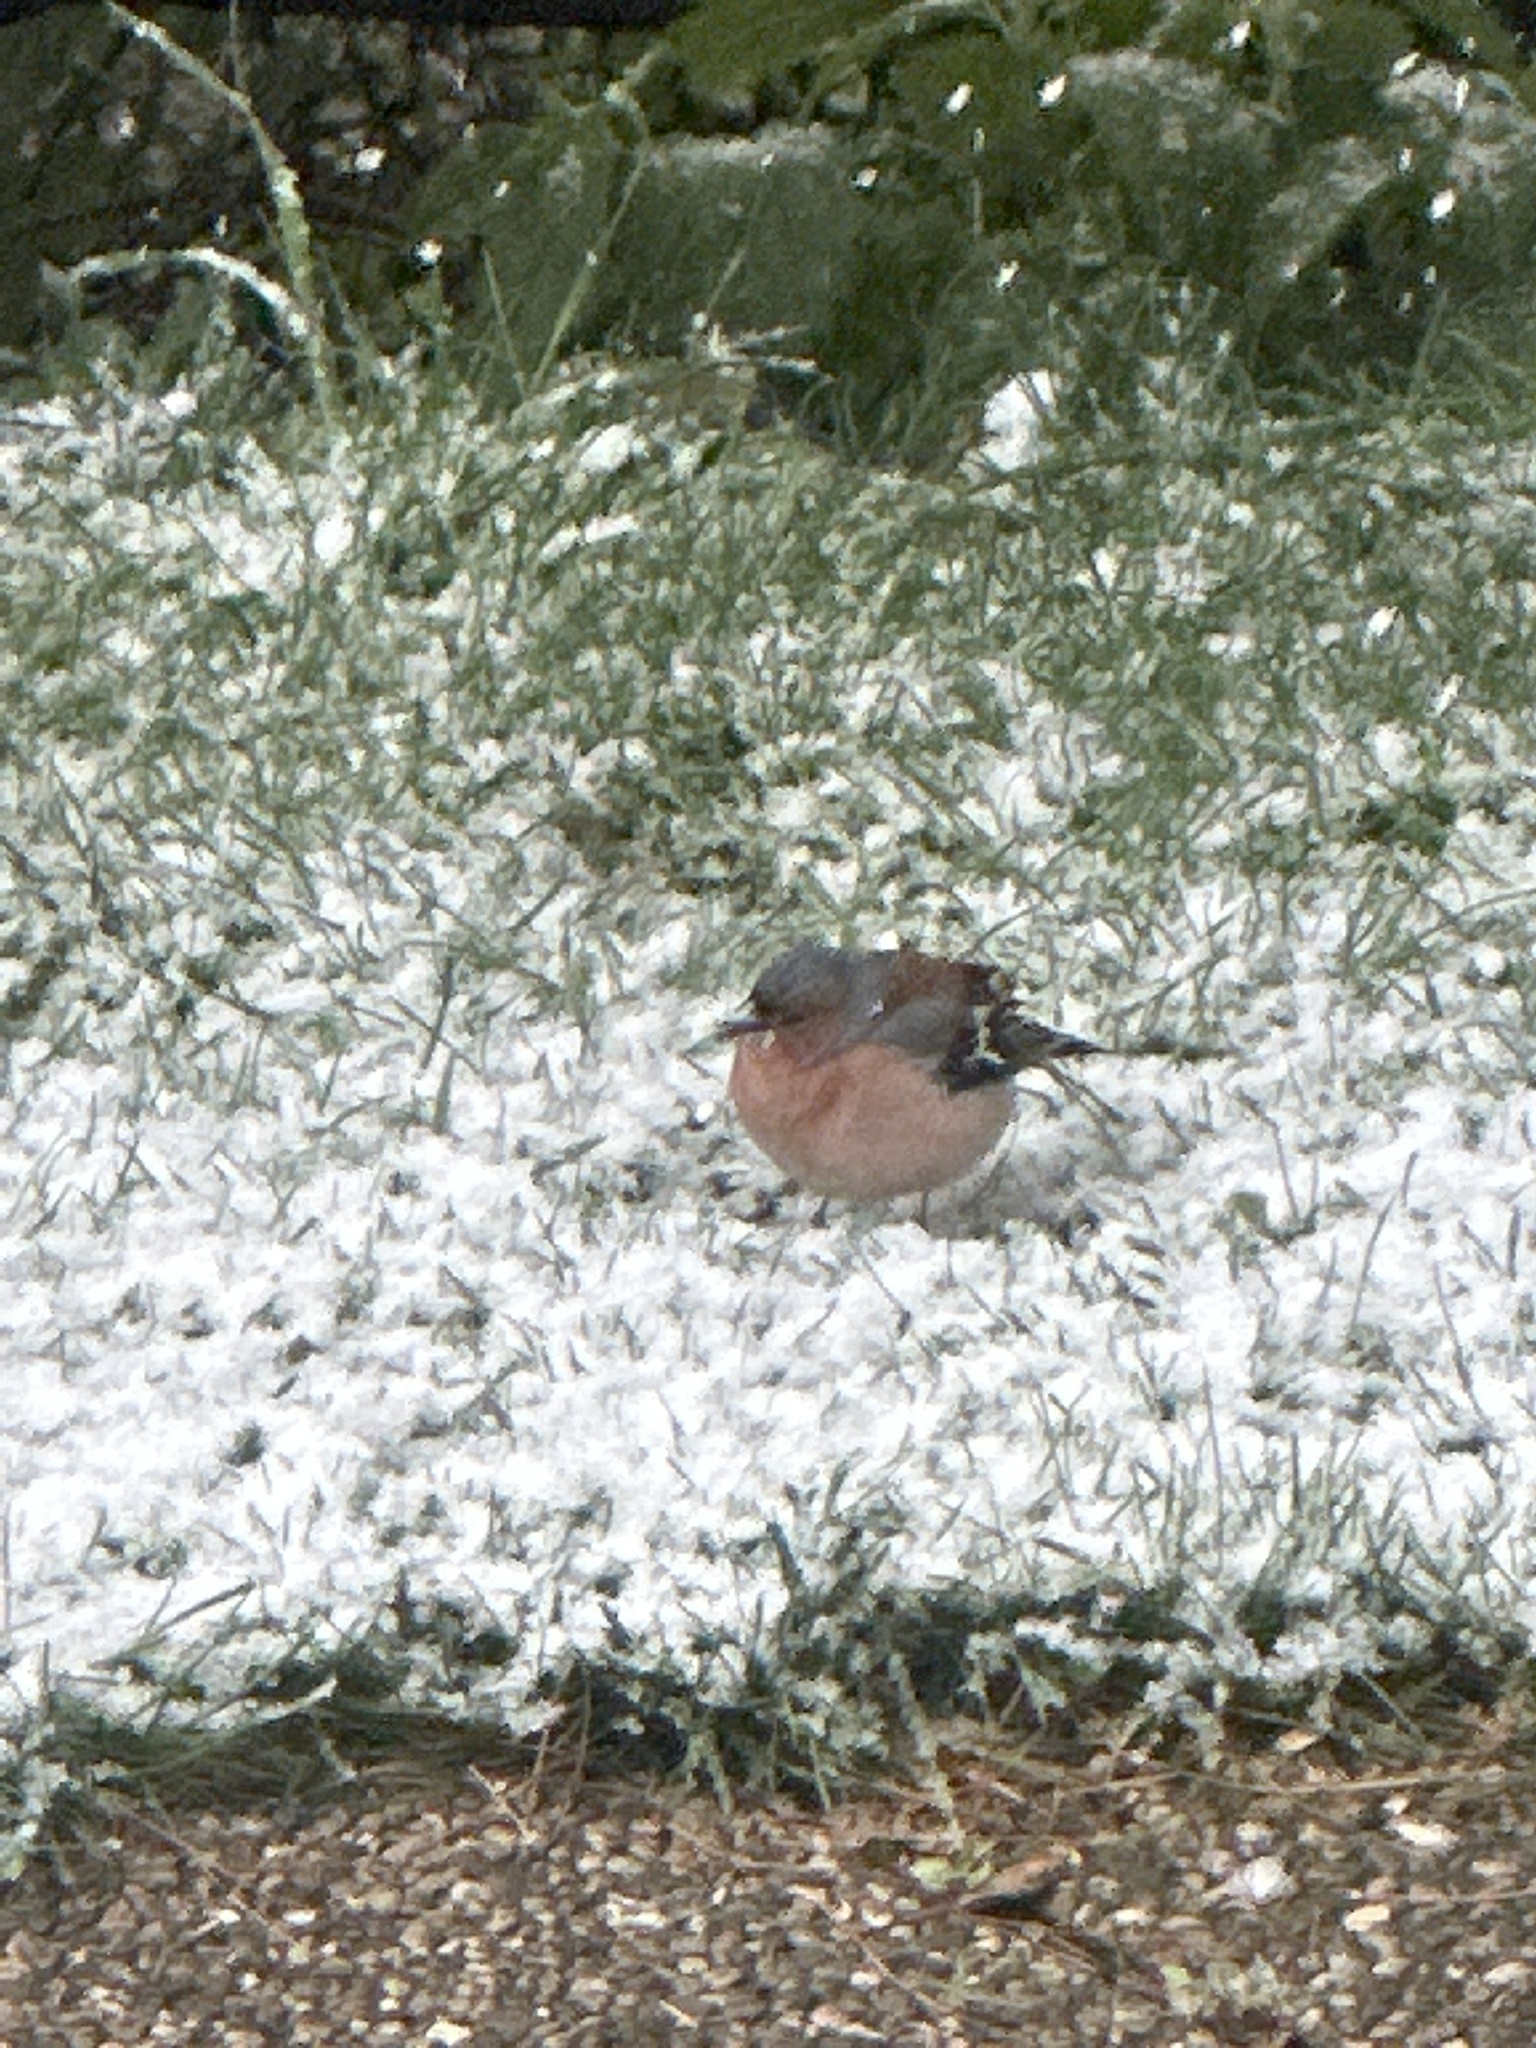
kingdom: Animalia
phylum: Chordata
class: Aves
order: Passeriformes
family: Fringillidae
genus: Fringilla
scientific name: Fringilla coelebs
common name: Common chaffinch
